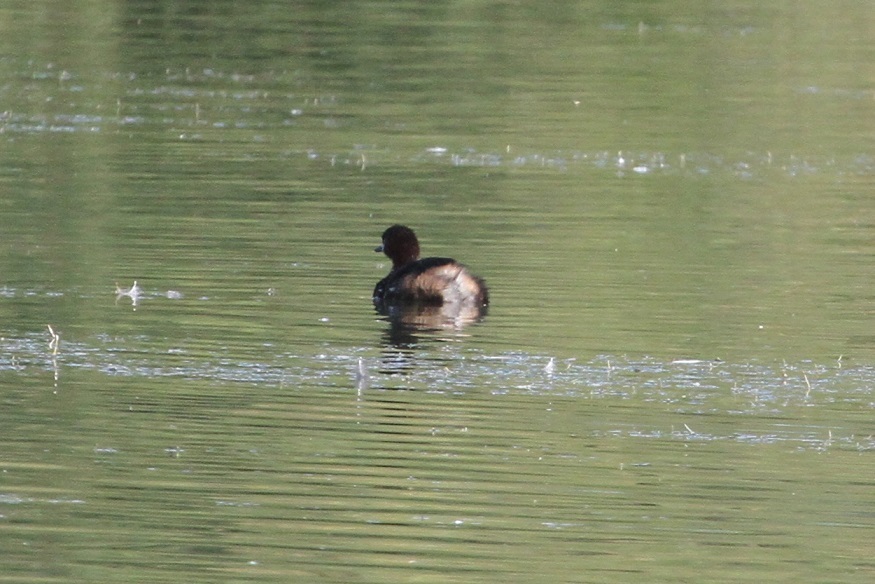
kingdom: Animalia
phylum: Chordata
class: Aves
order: Podicipediformes
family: Podicipedidae
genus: Tachybaptus
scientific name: Tachybaptus ruficollis
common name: Little grebe
